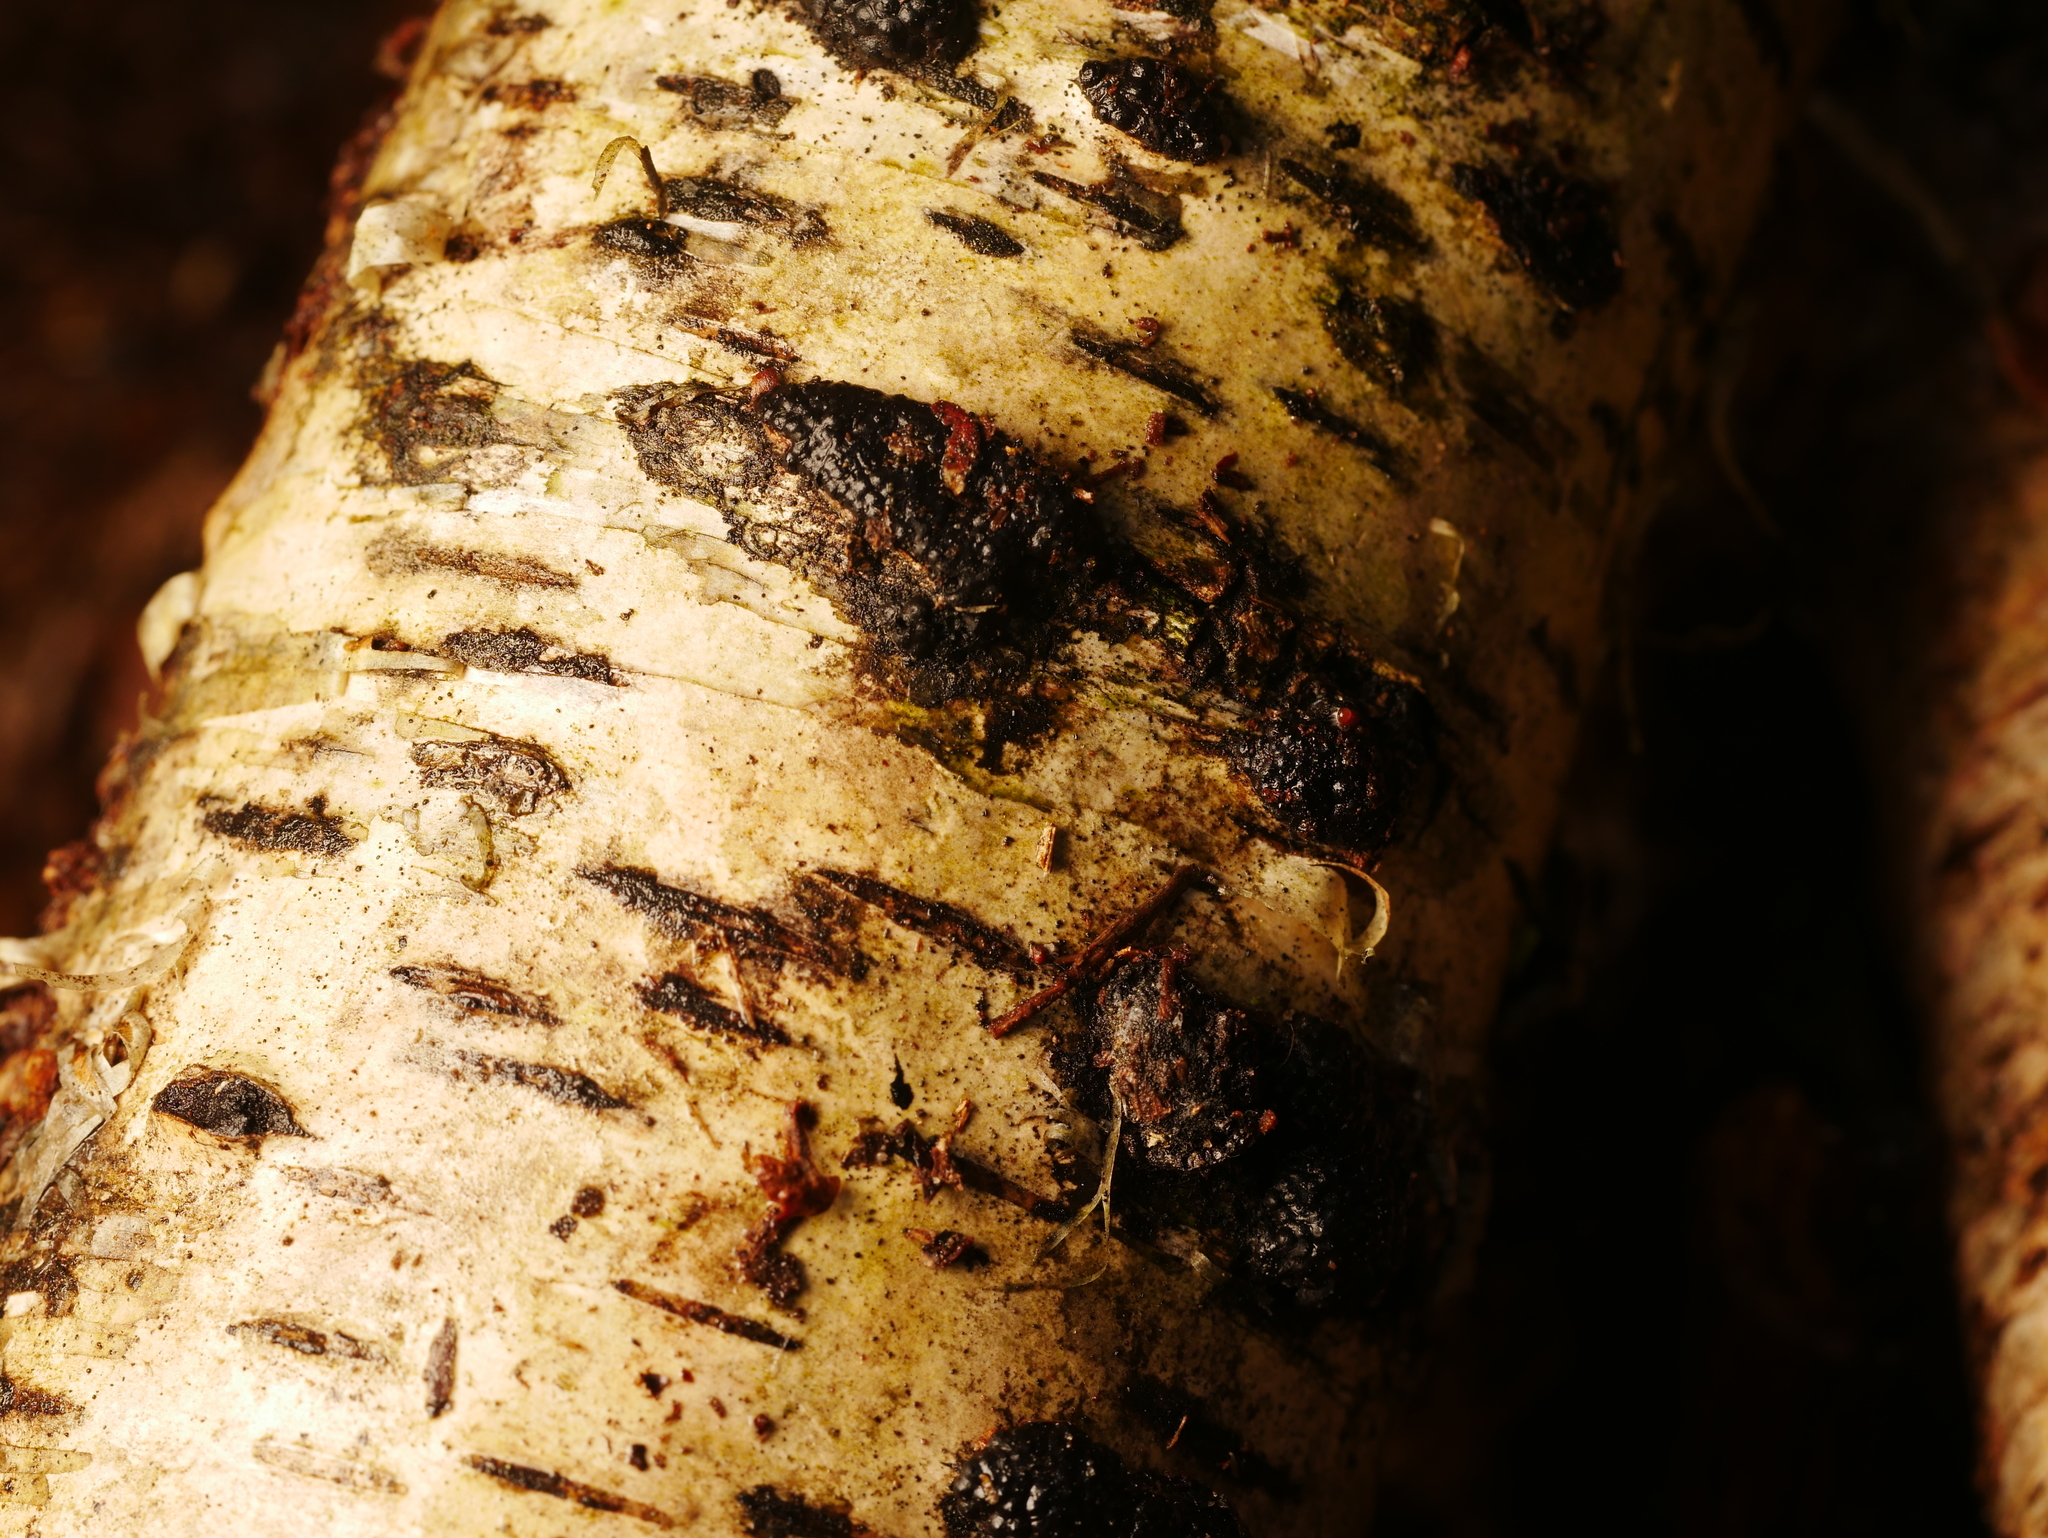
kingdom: Plantae
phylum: Tracheophyta
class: Magnoliopsida
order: Fagales
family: Betulaceae
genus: Betula
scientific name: Betula pendula
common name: Silver birch
